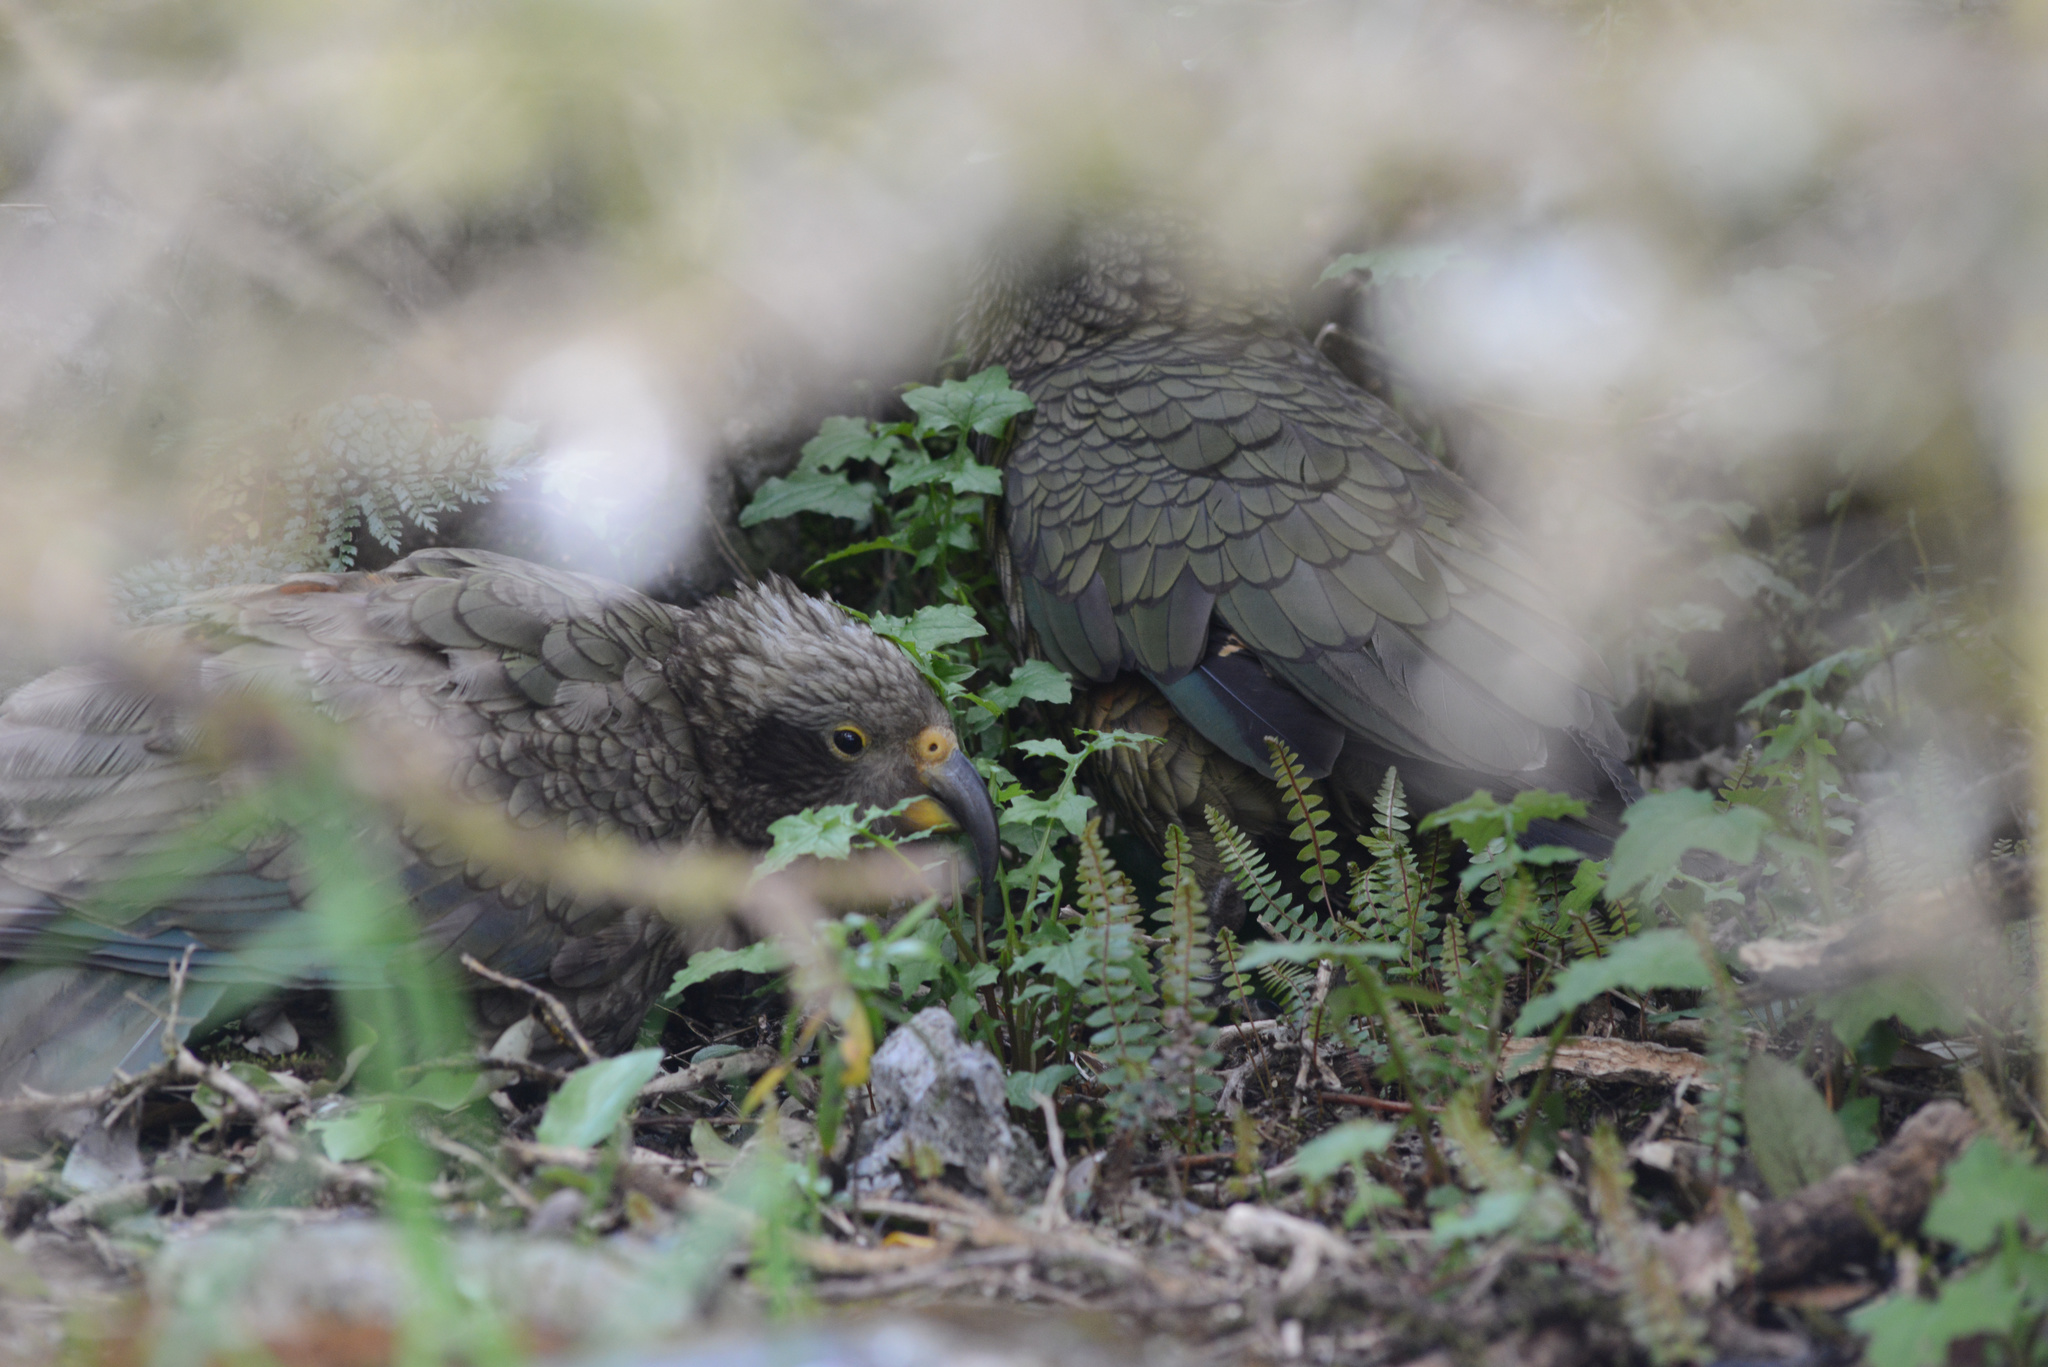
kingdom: Animalia
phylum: Chordata
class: Aves
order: Psittaciformes
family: Psittacidae
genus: Nestor
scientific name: Nestor notabilis
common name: Kea
